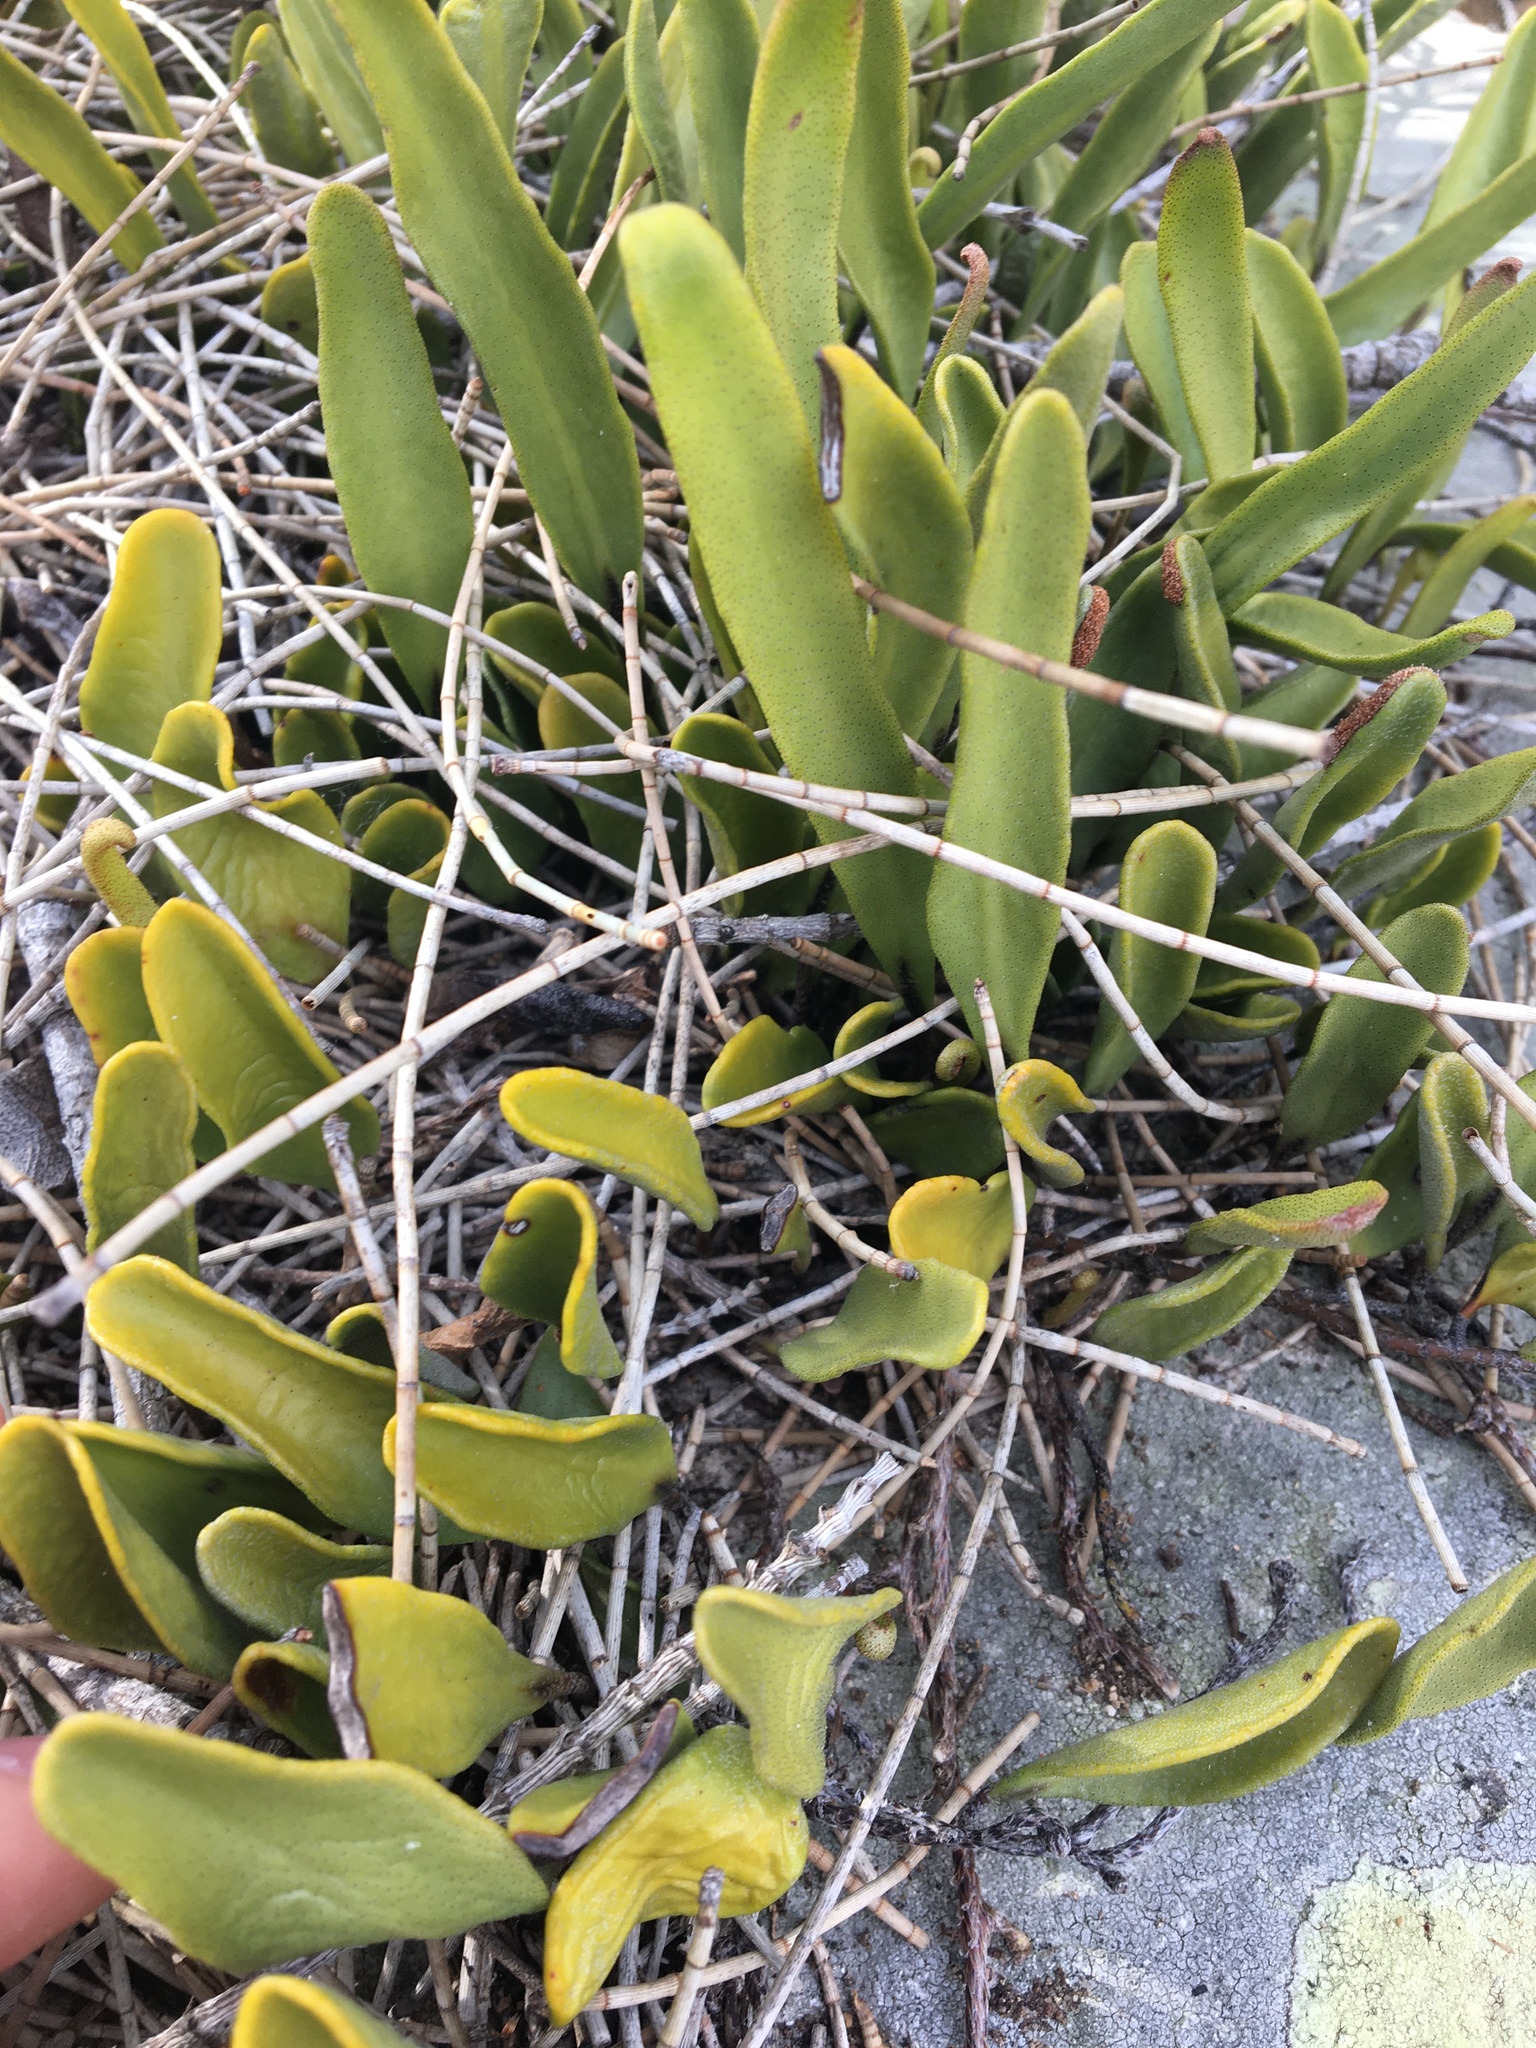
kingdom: Plantae
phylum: Tracheophyta
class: Polypodiopsida
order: Polypodiales
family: Polypodiaceae
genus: Pyrrosia
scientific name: Pyrrosia confluens
